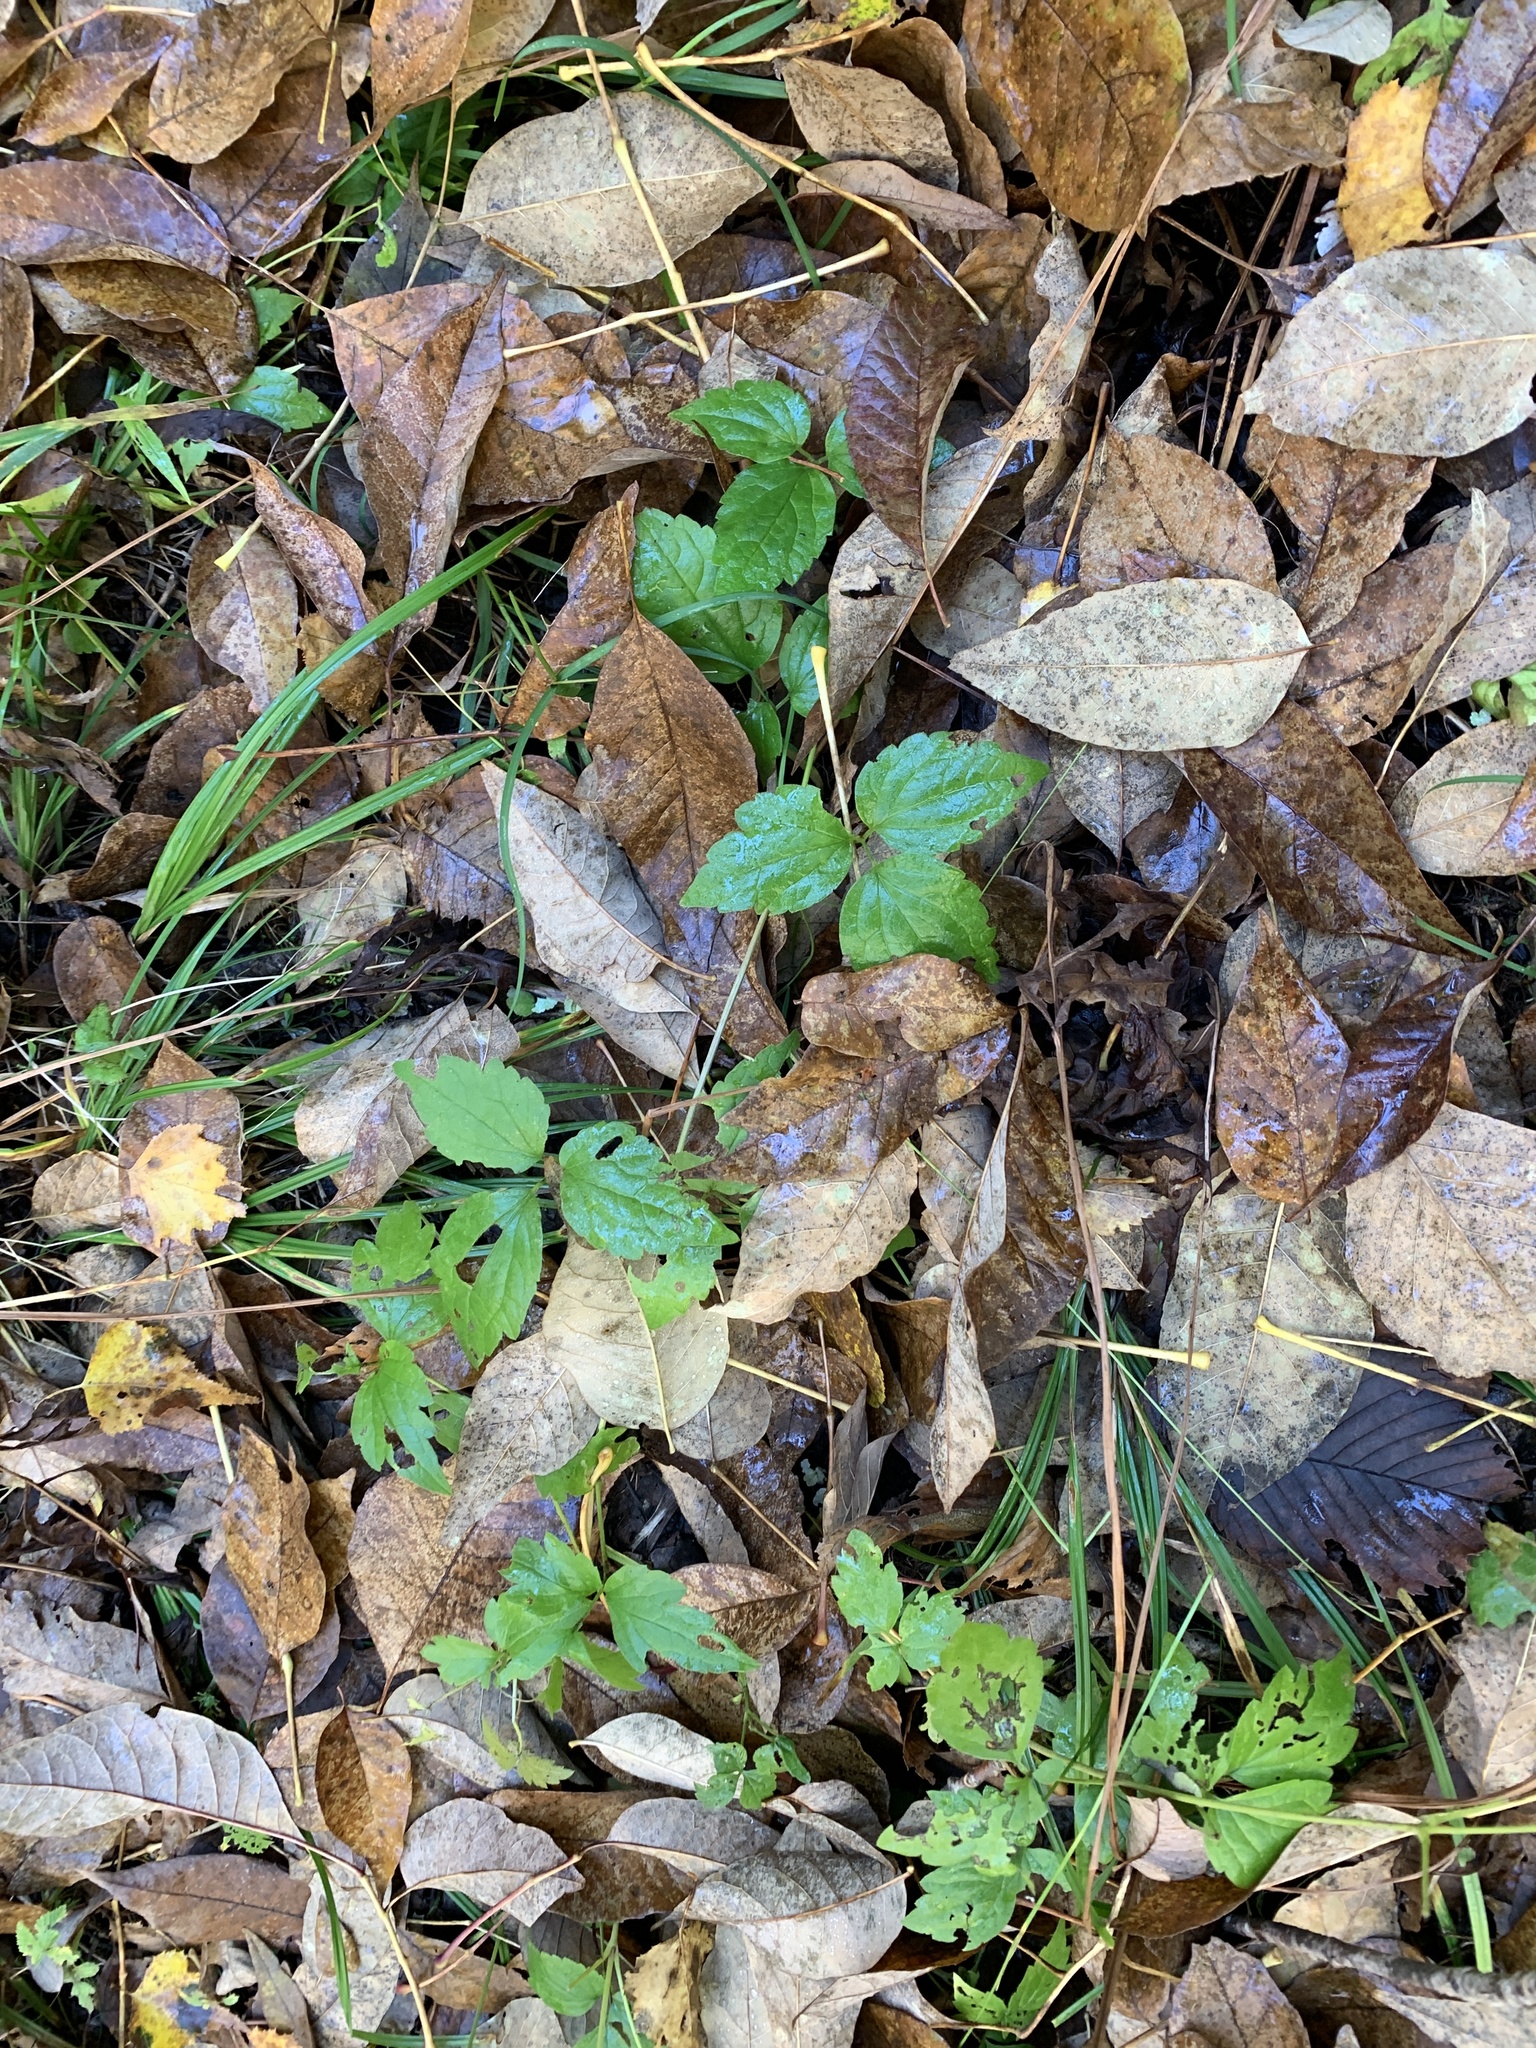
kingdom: Plantae
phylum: Tracheophyta
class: Magnoliopsida
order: Ranunculales
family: Ranunculaceae
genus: Clematis
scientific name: Clematis virginiana
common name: Virgin's-bower
